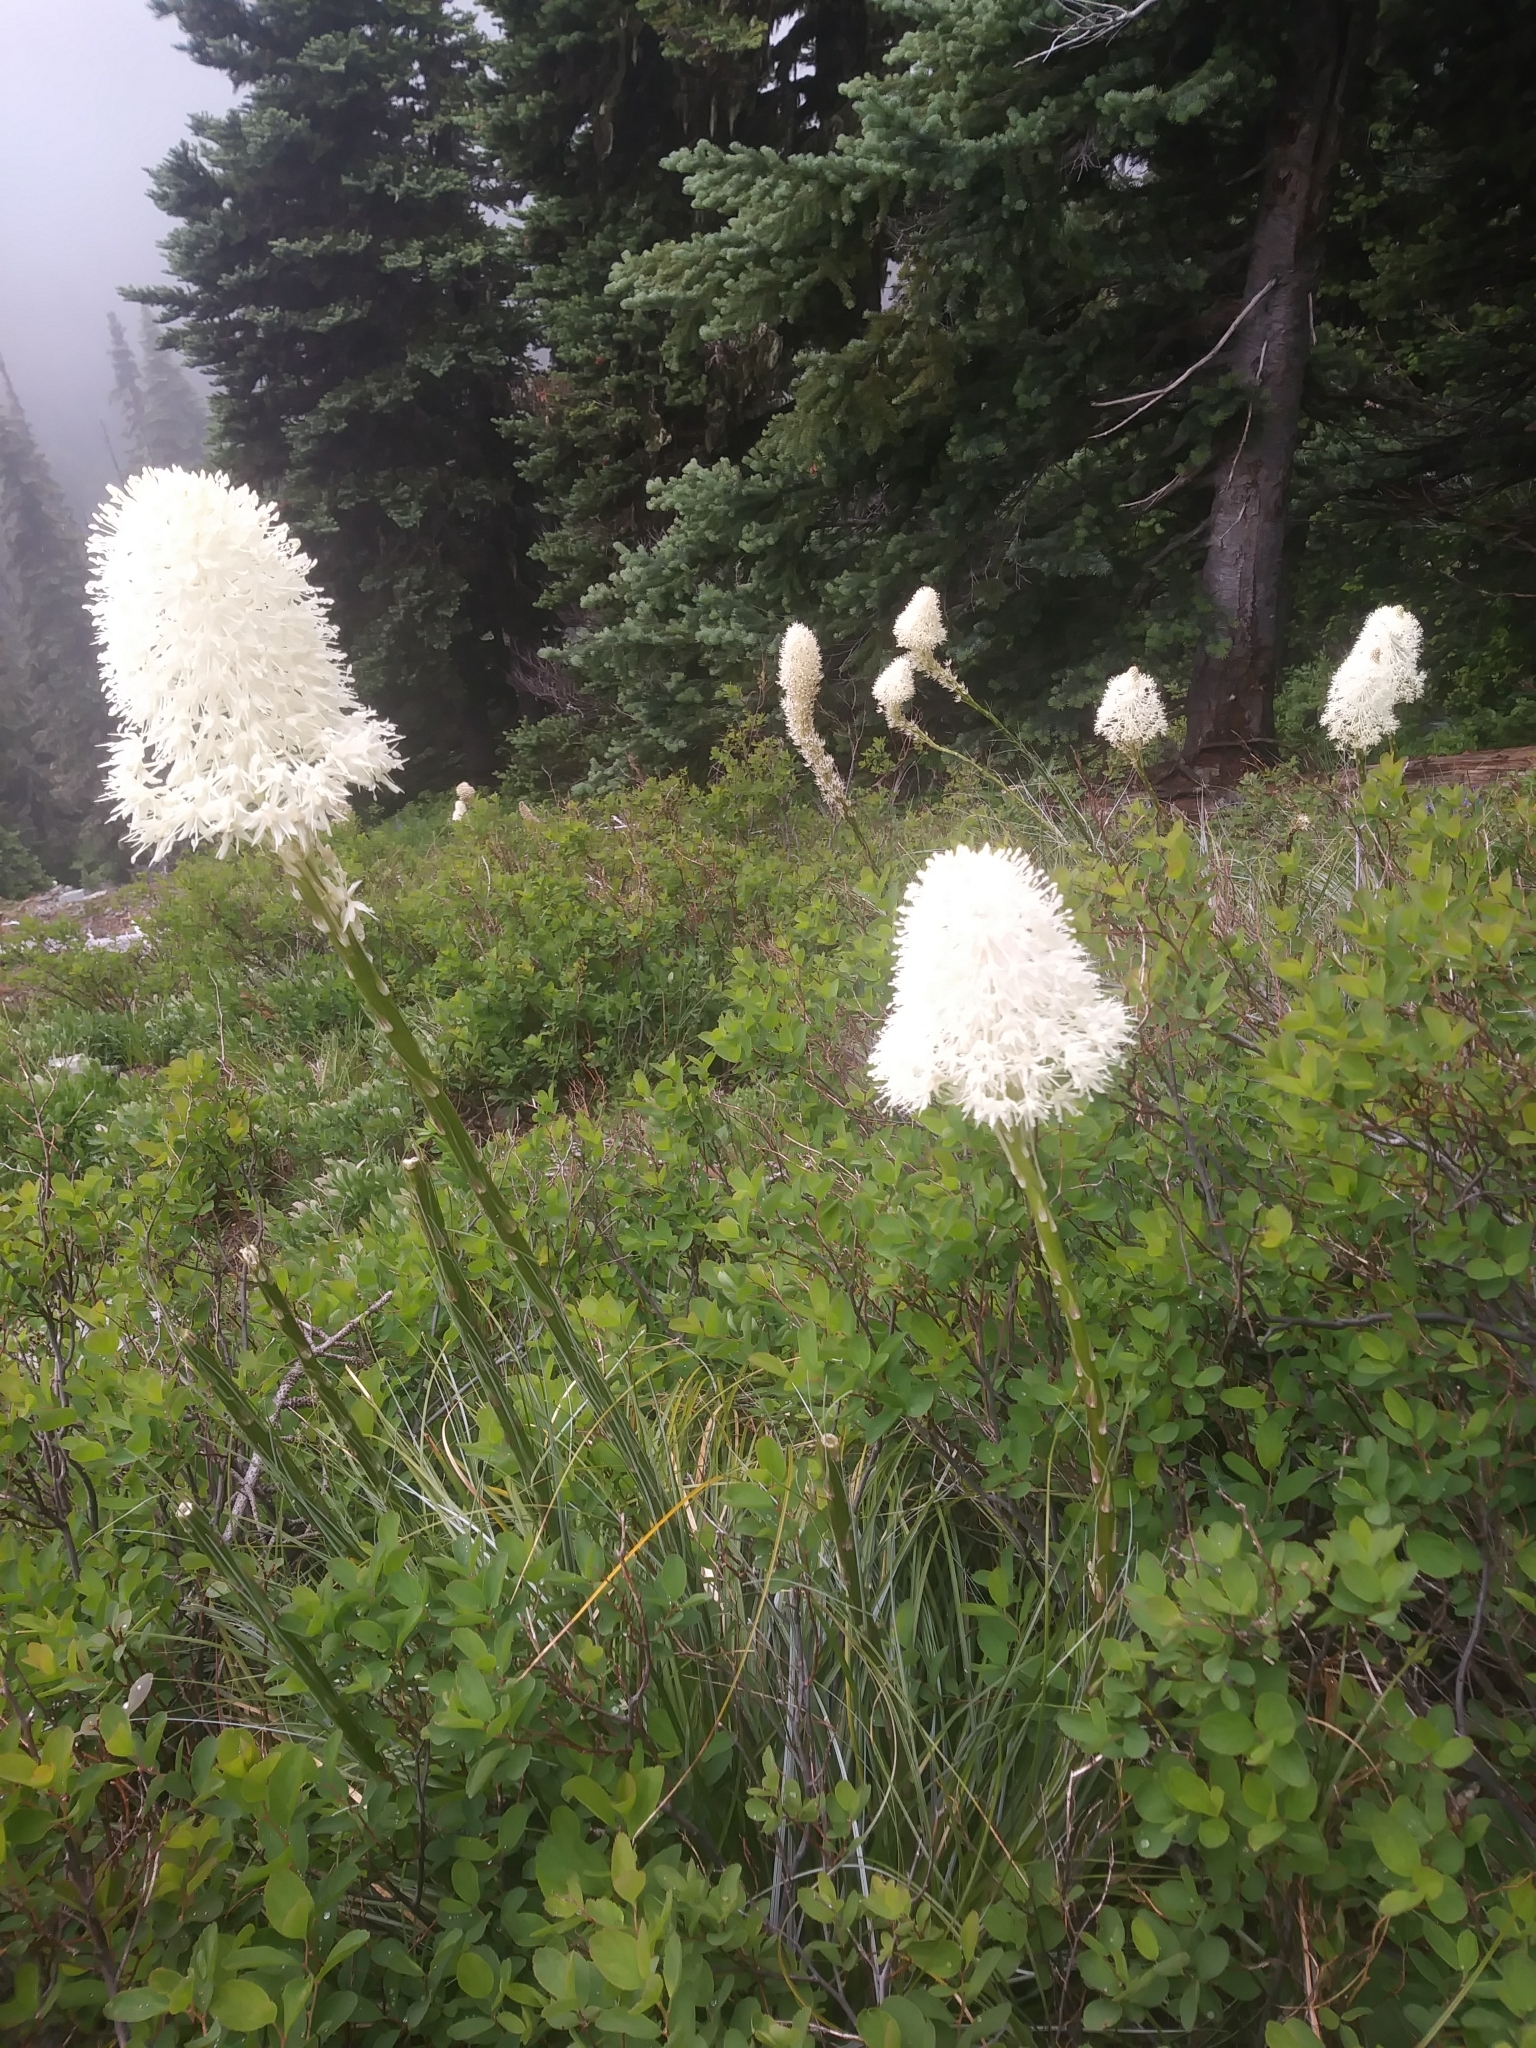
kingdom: Plantae
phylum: Tracheophyta
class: Liliopsida
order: Liliales
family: Melanthiaceae
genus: Xerophyllum
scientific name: Xerophyllum tenax
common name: Bear-grass
